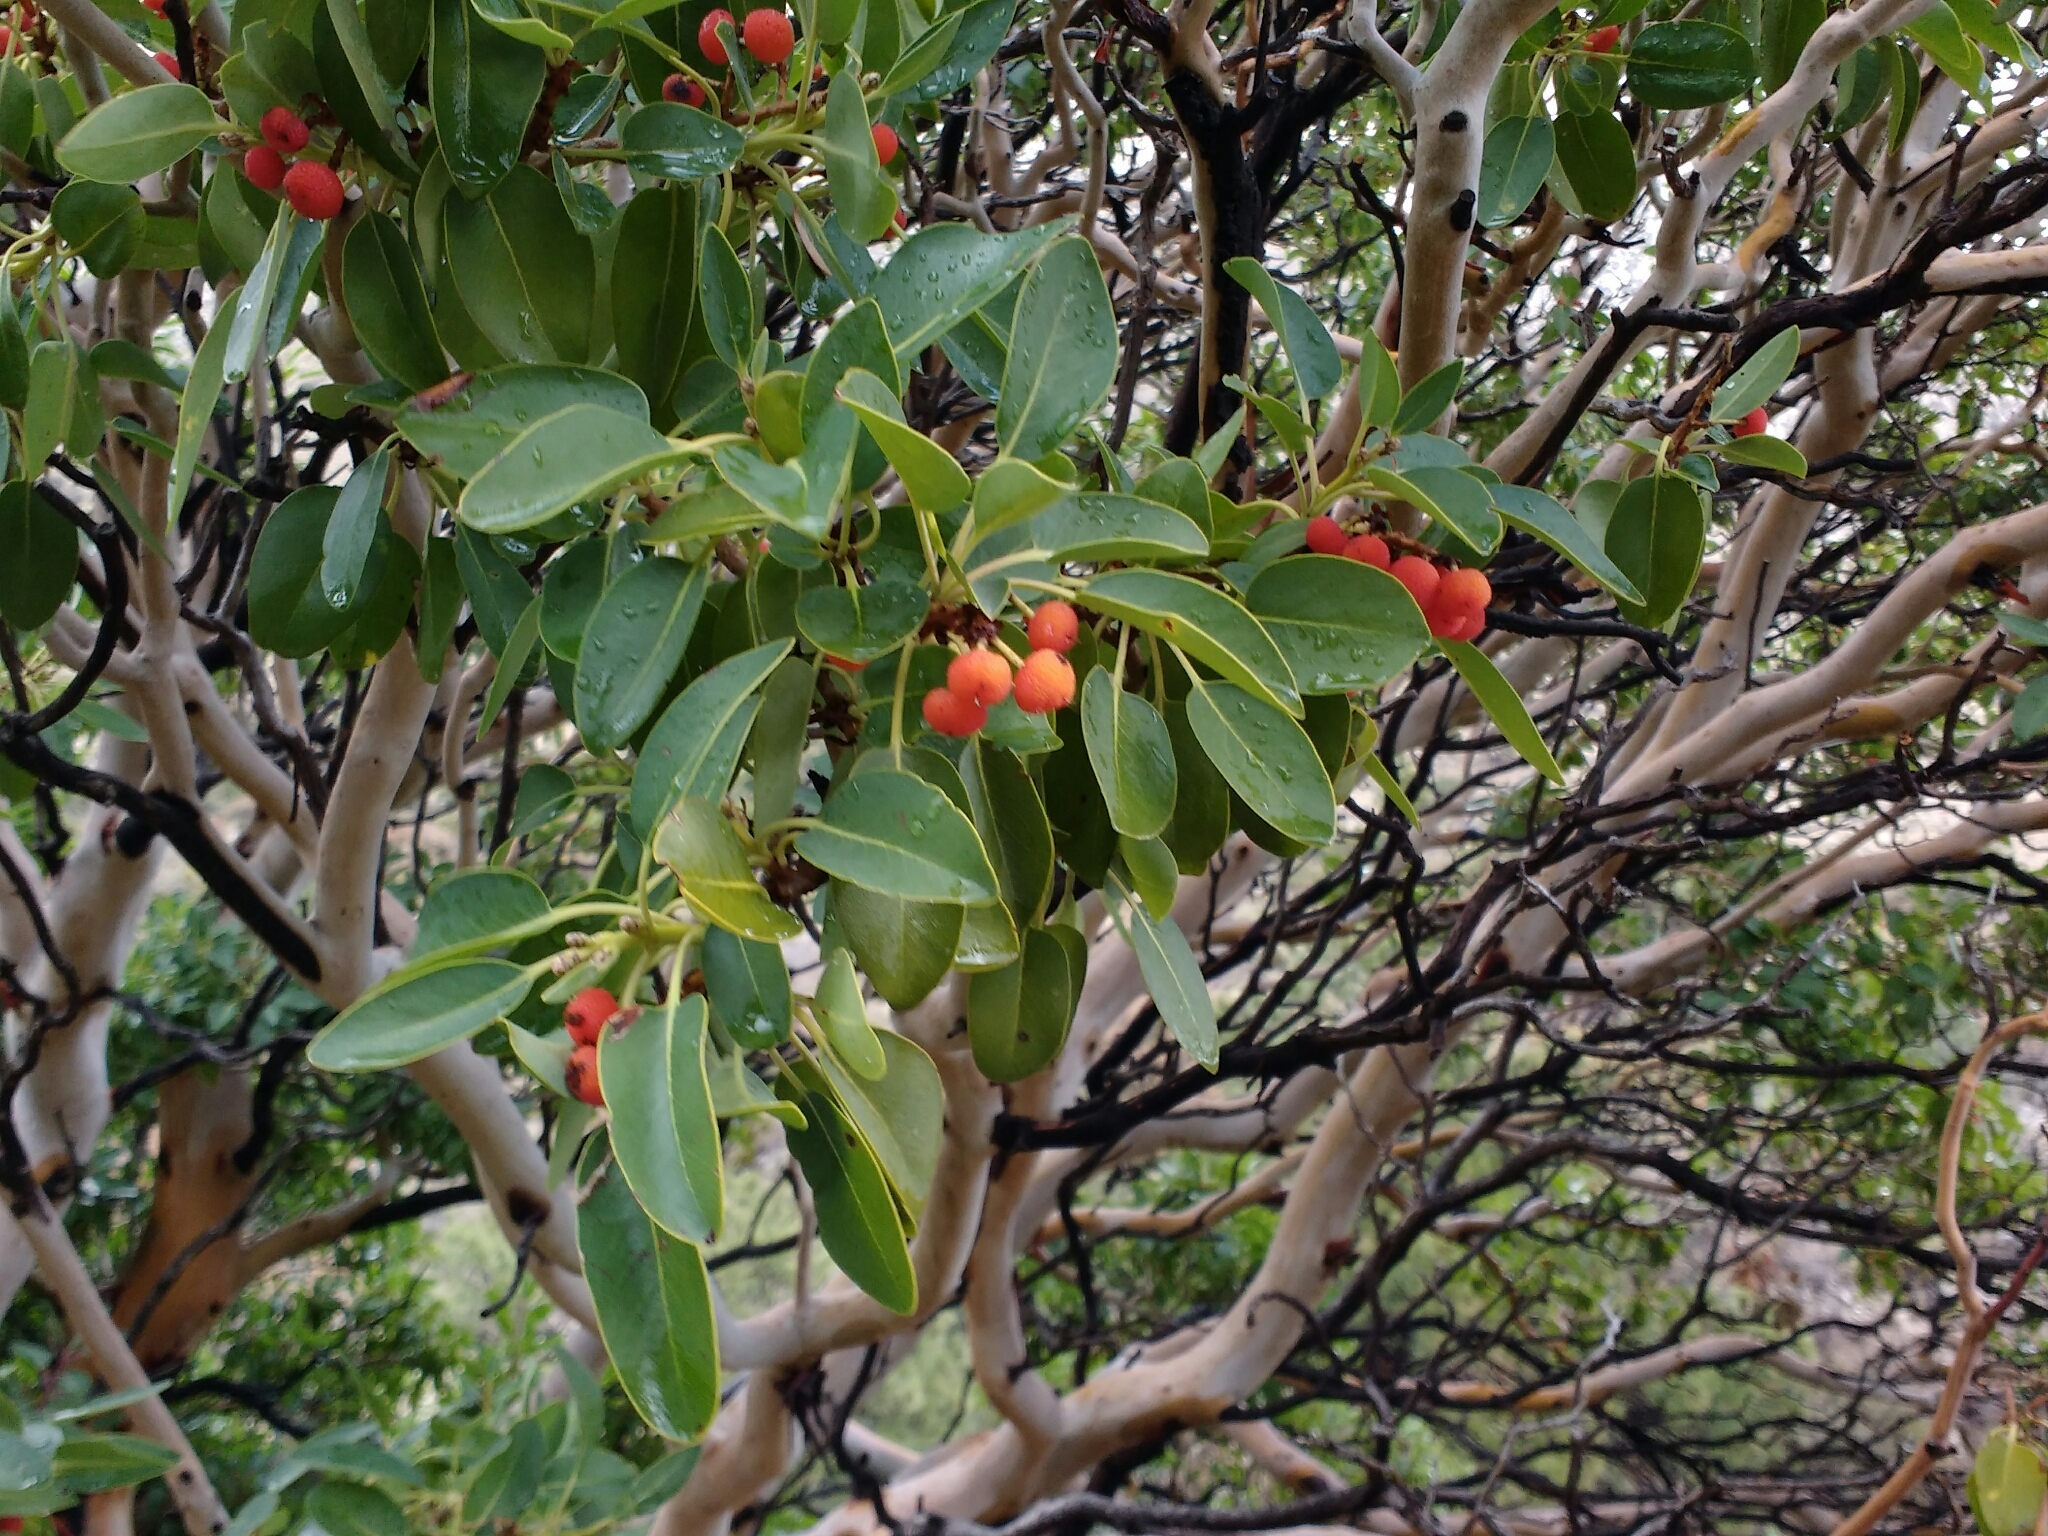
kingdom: Plantae
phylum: Tracheophyta
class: Magnoliopsida
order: Ericales
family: Ericaceae
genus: Arbutus
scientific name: Arbutus xalapensis
